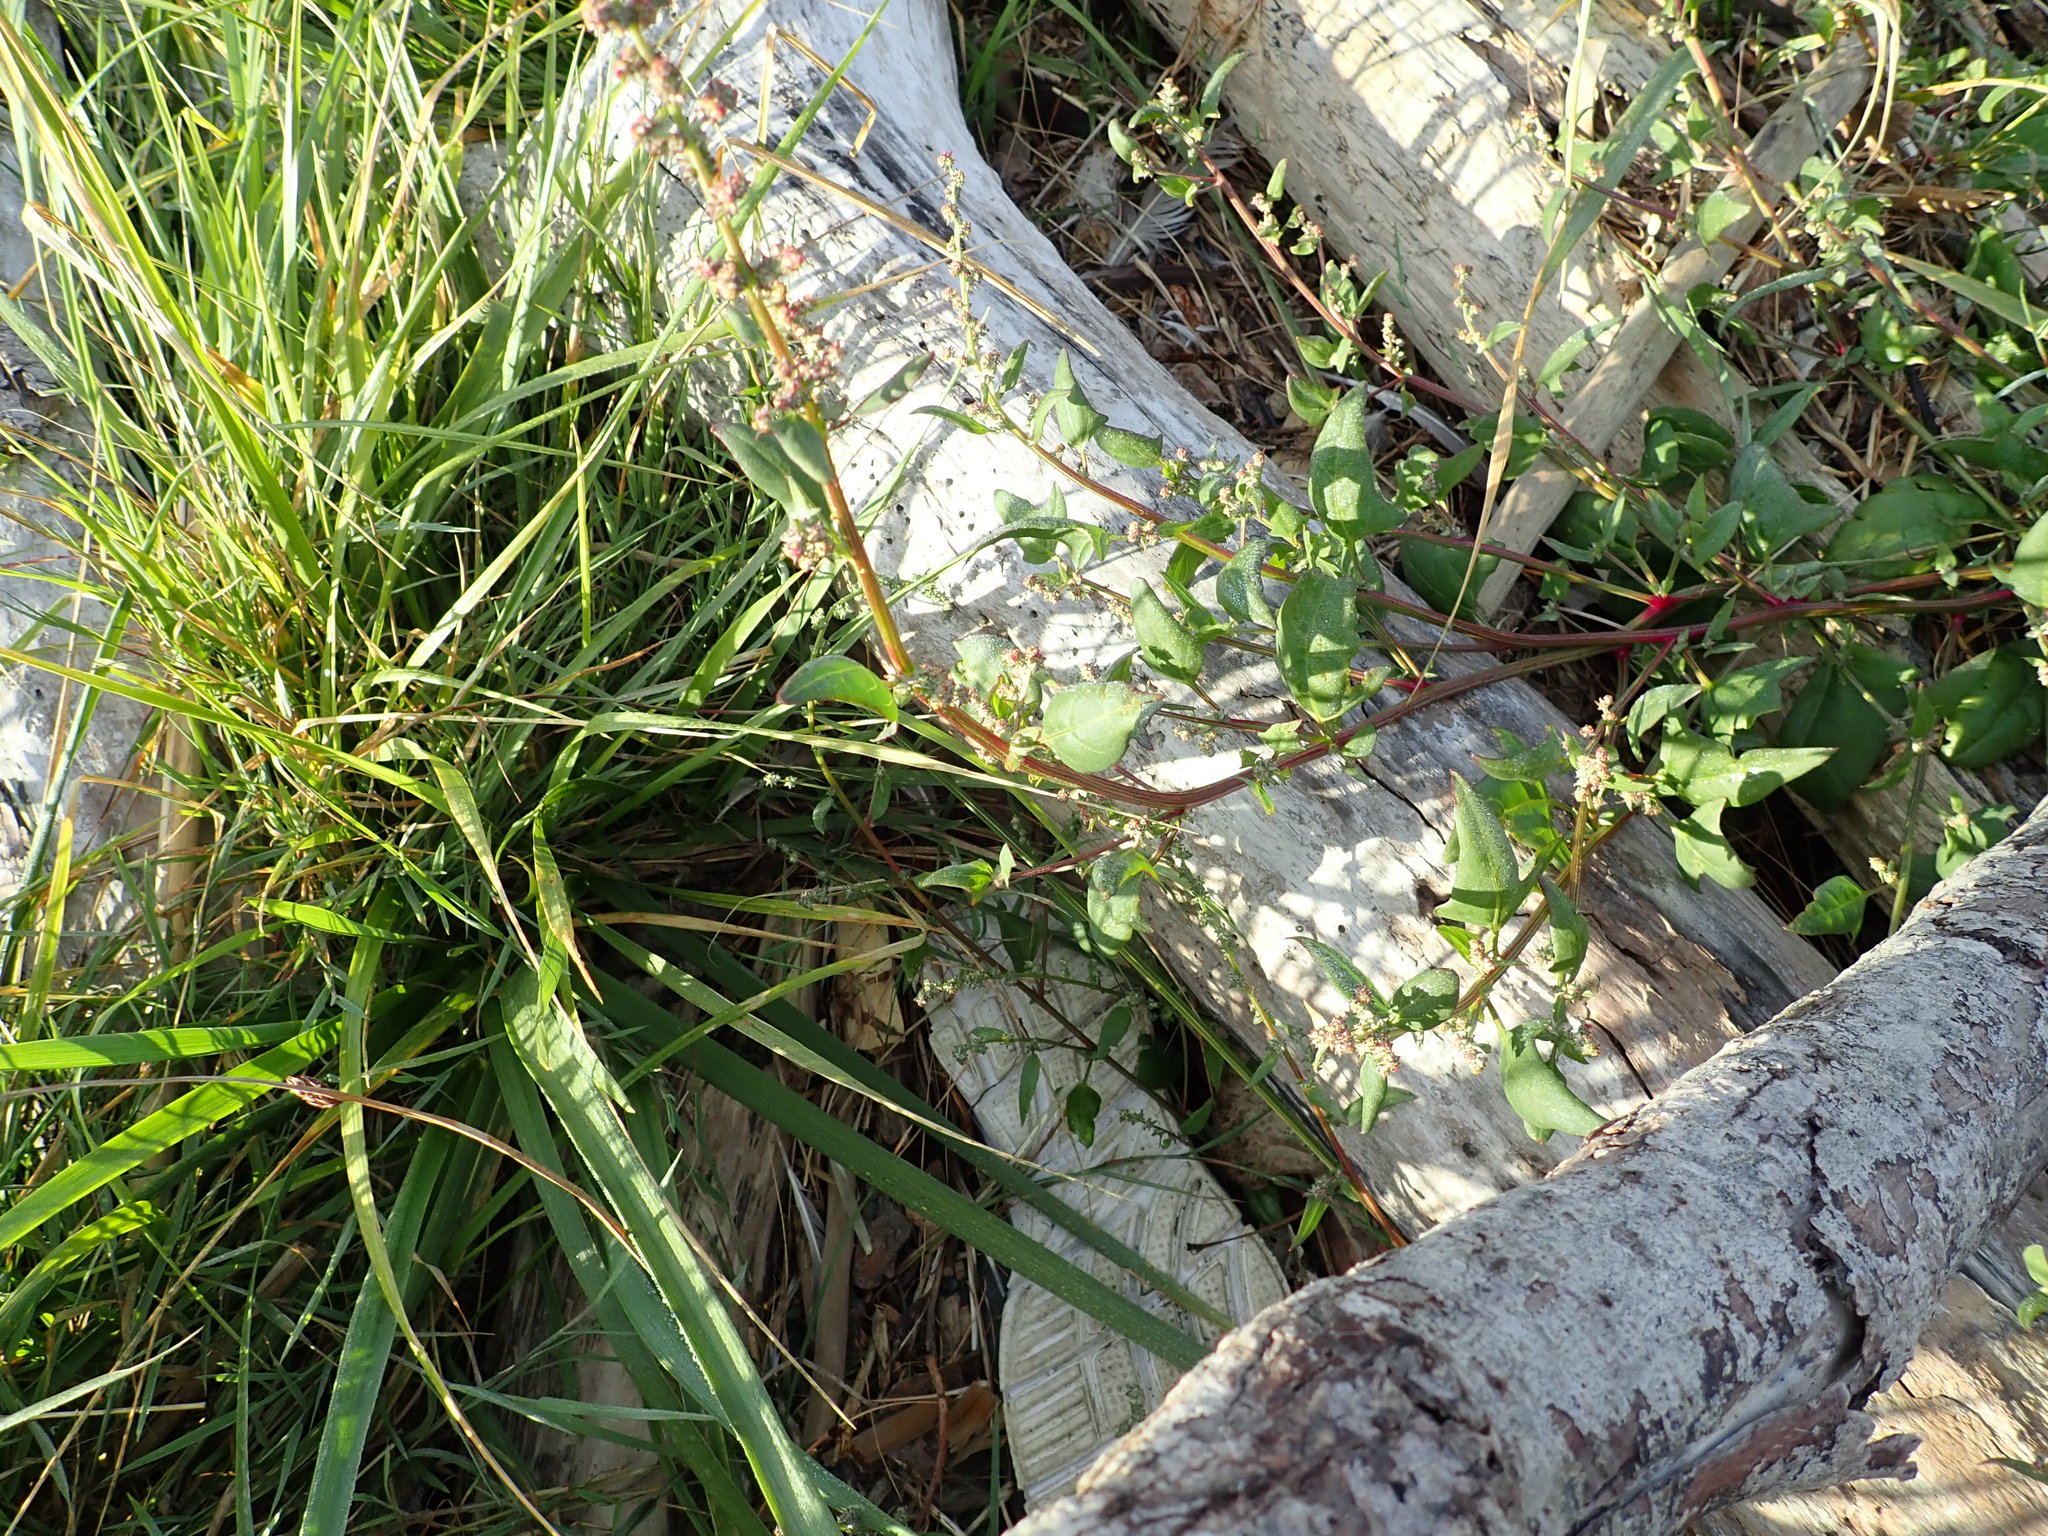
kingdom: Plantae
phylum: Tracheophyta
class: Magnoliopsida
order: Caryophyllales
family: Amaranthaceae
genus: Atriplex
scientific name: Atriplex prostrata
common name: Spear-leaved orache
